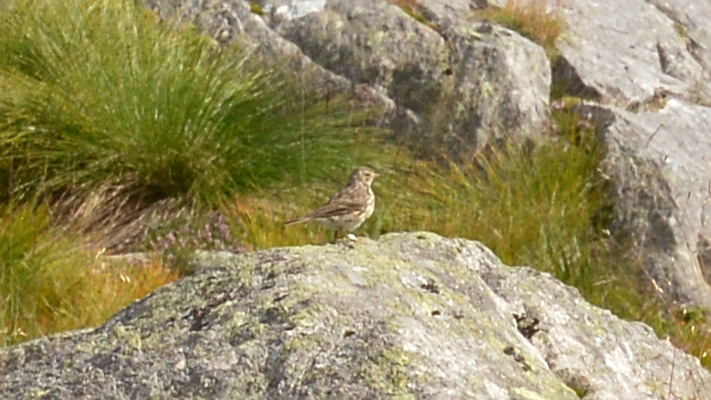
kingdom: Animalia
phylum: Chordata
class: Aves
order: Passeriformes
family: Motacillidae
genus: Anthus
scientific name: Anthus pratensis
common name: Meadow pipit
